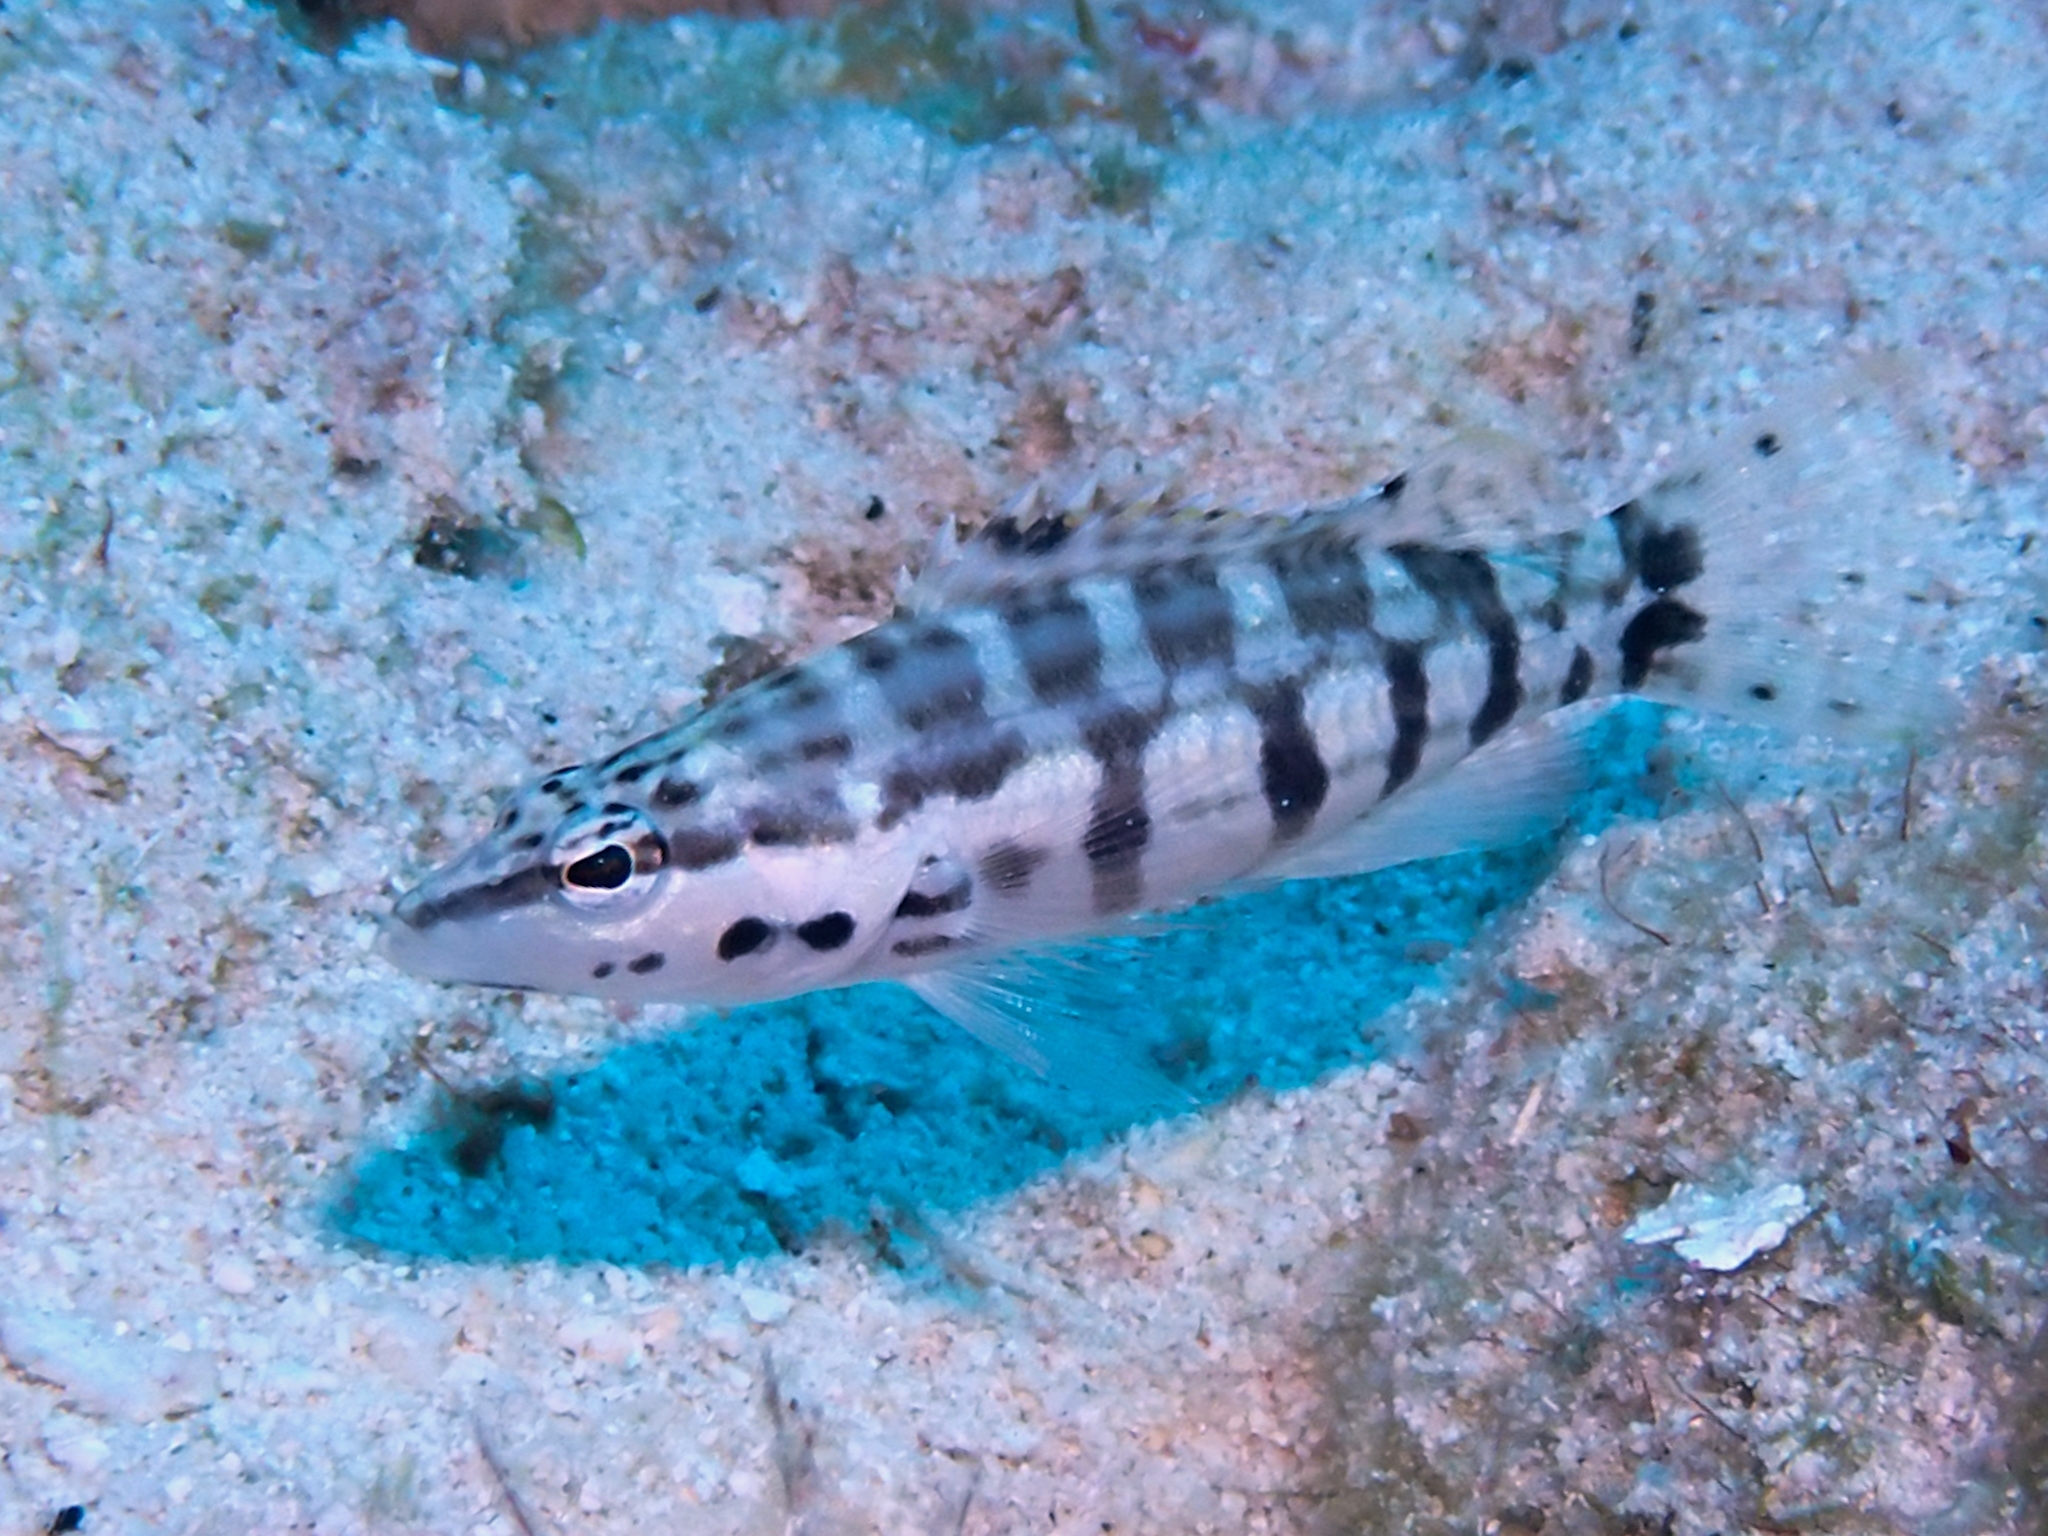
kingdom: Animalia
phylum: Chordata
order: Perciformes
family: Serranidae
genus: Serranus
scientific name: Serranus tigrinus
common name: Harlequin bass
